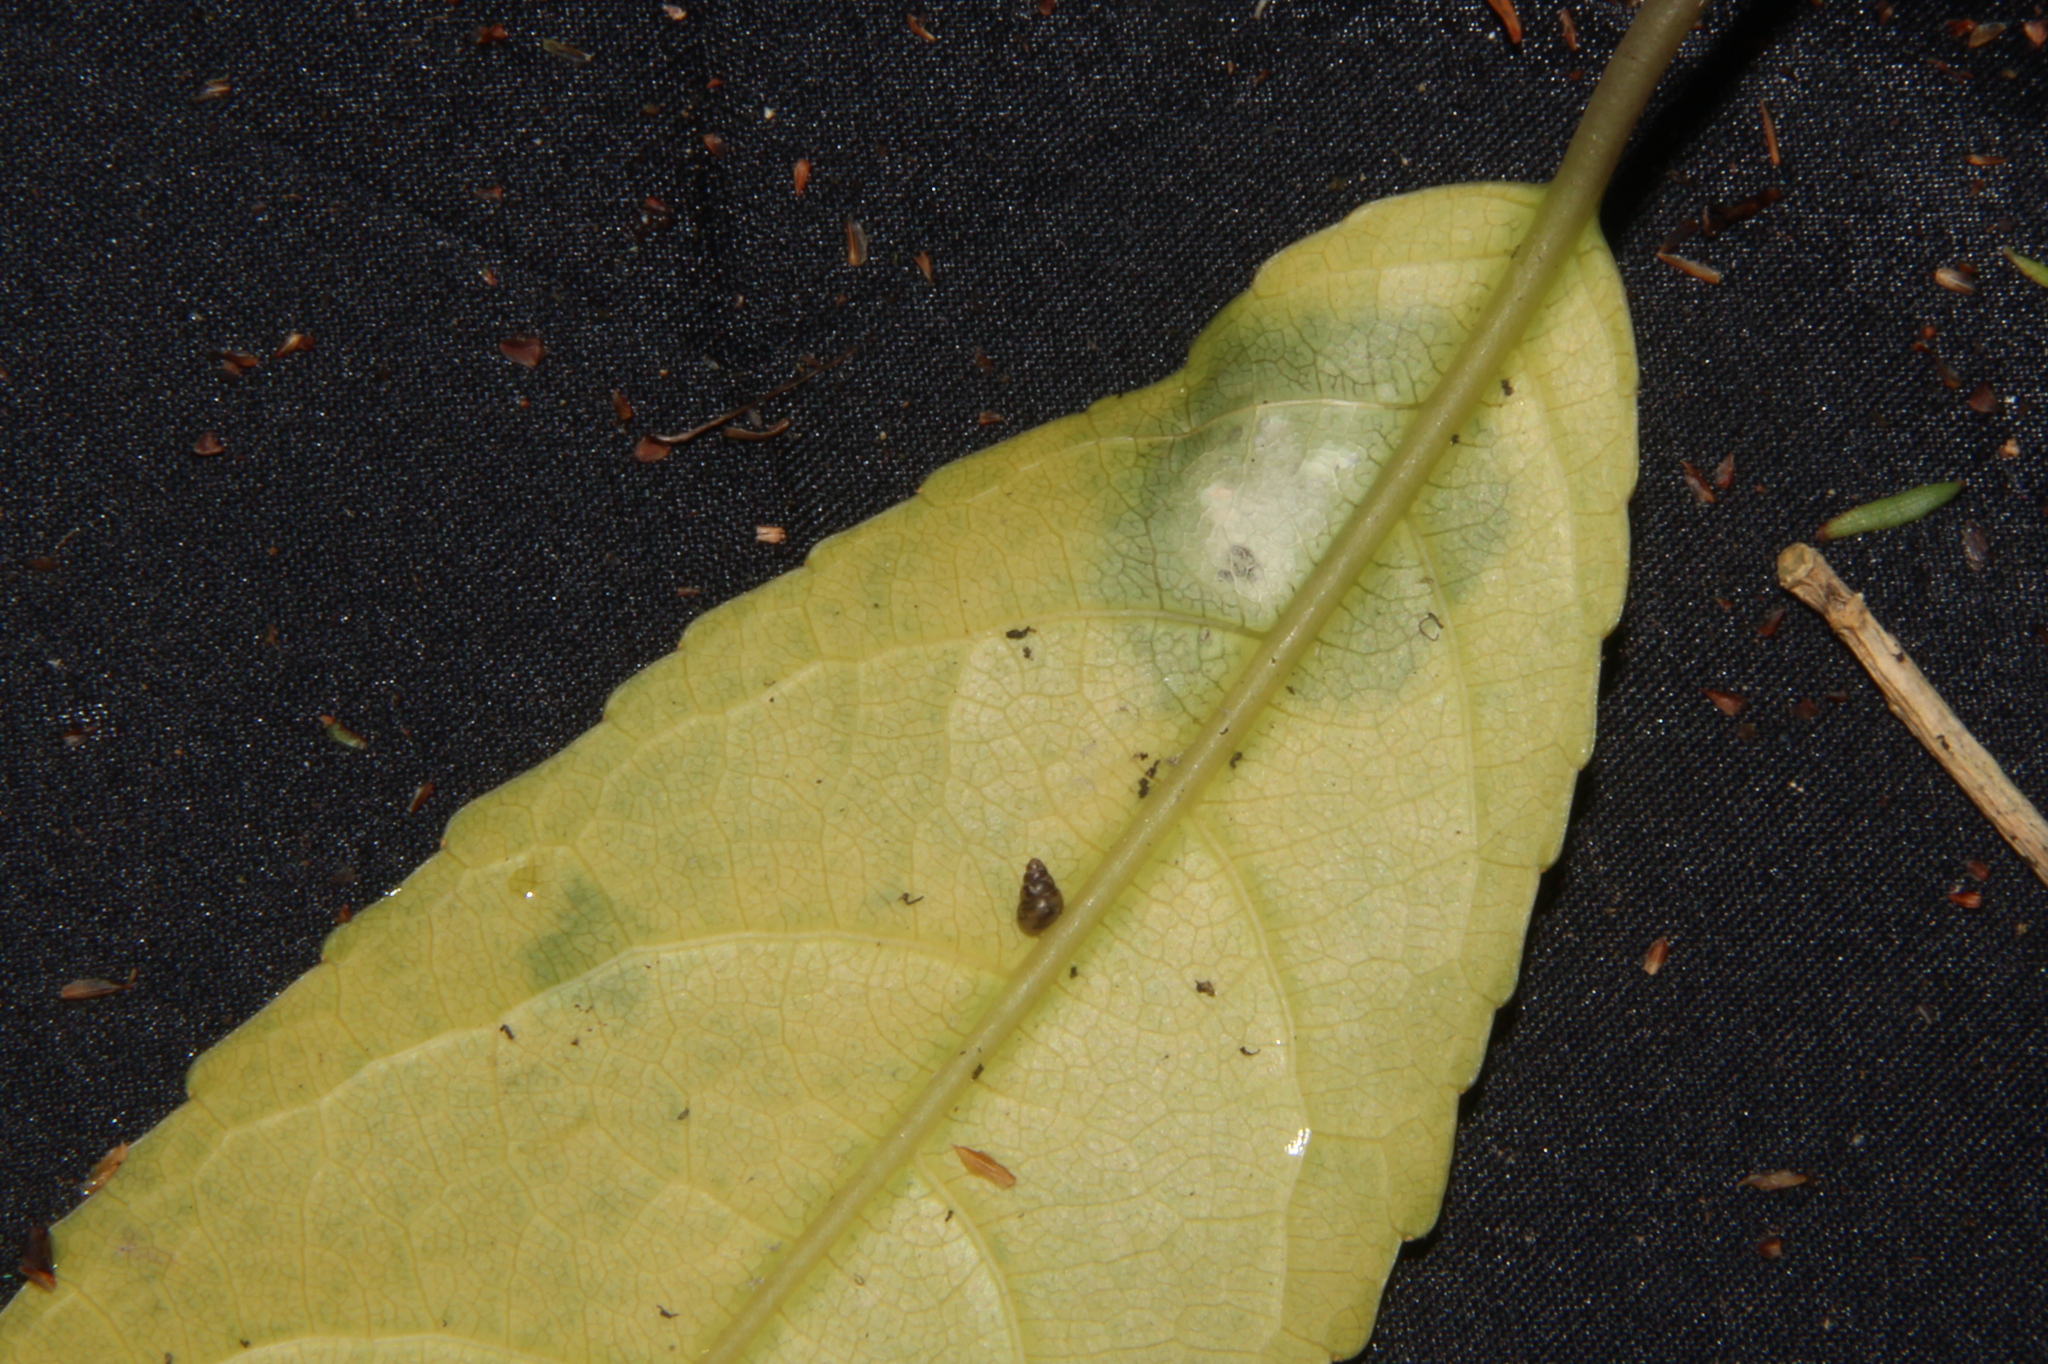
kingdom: Animalia
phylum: Mollusca
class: Gastropoda
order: Stylommatophora
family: Achatinellidae
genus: Tornatellides
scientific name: Tornatellides subperforatus
